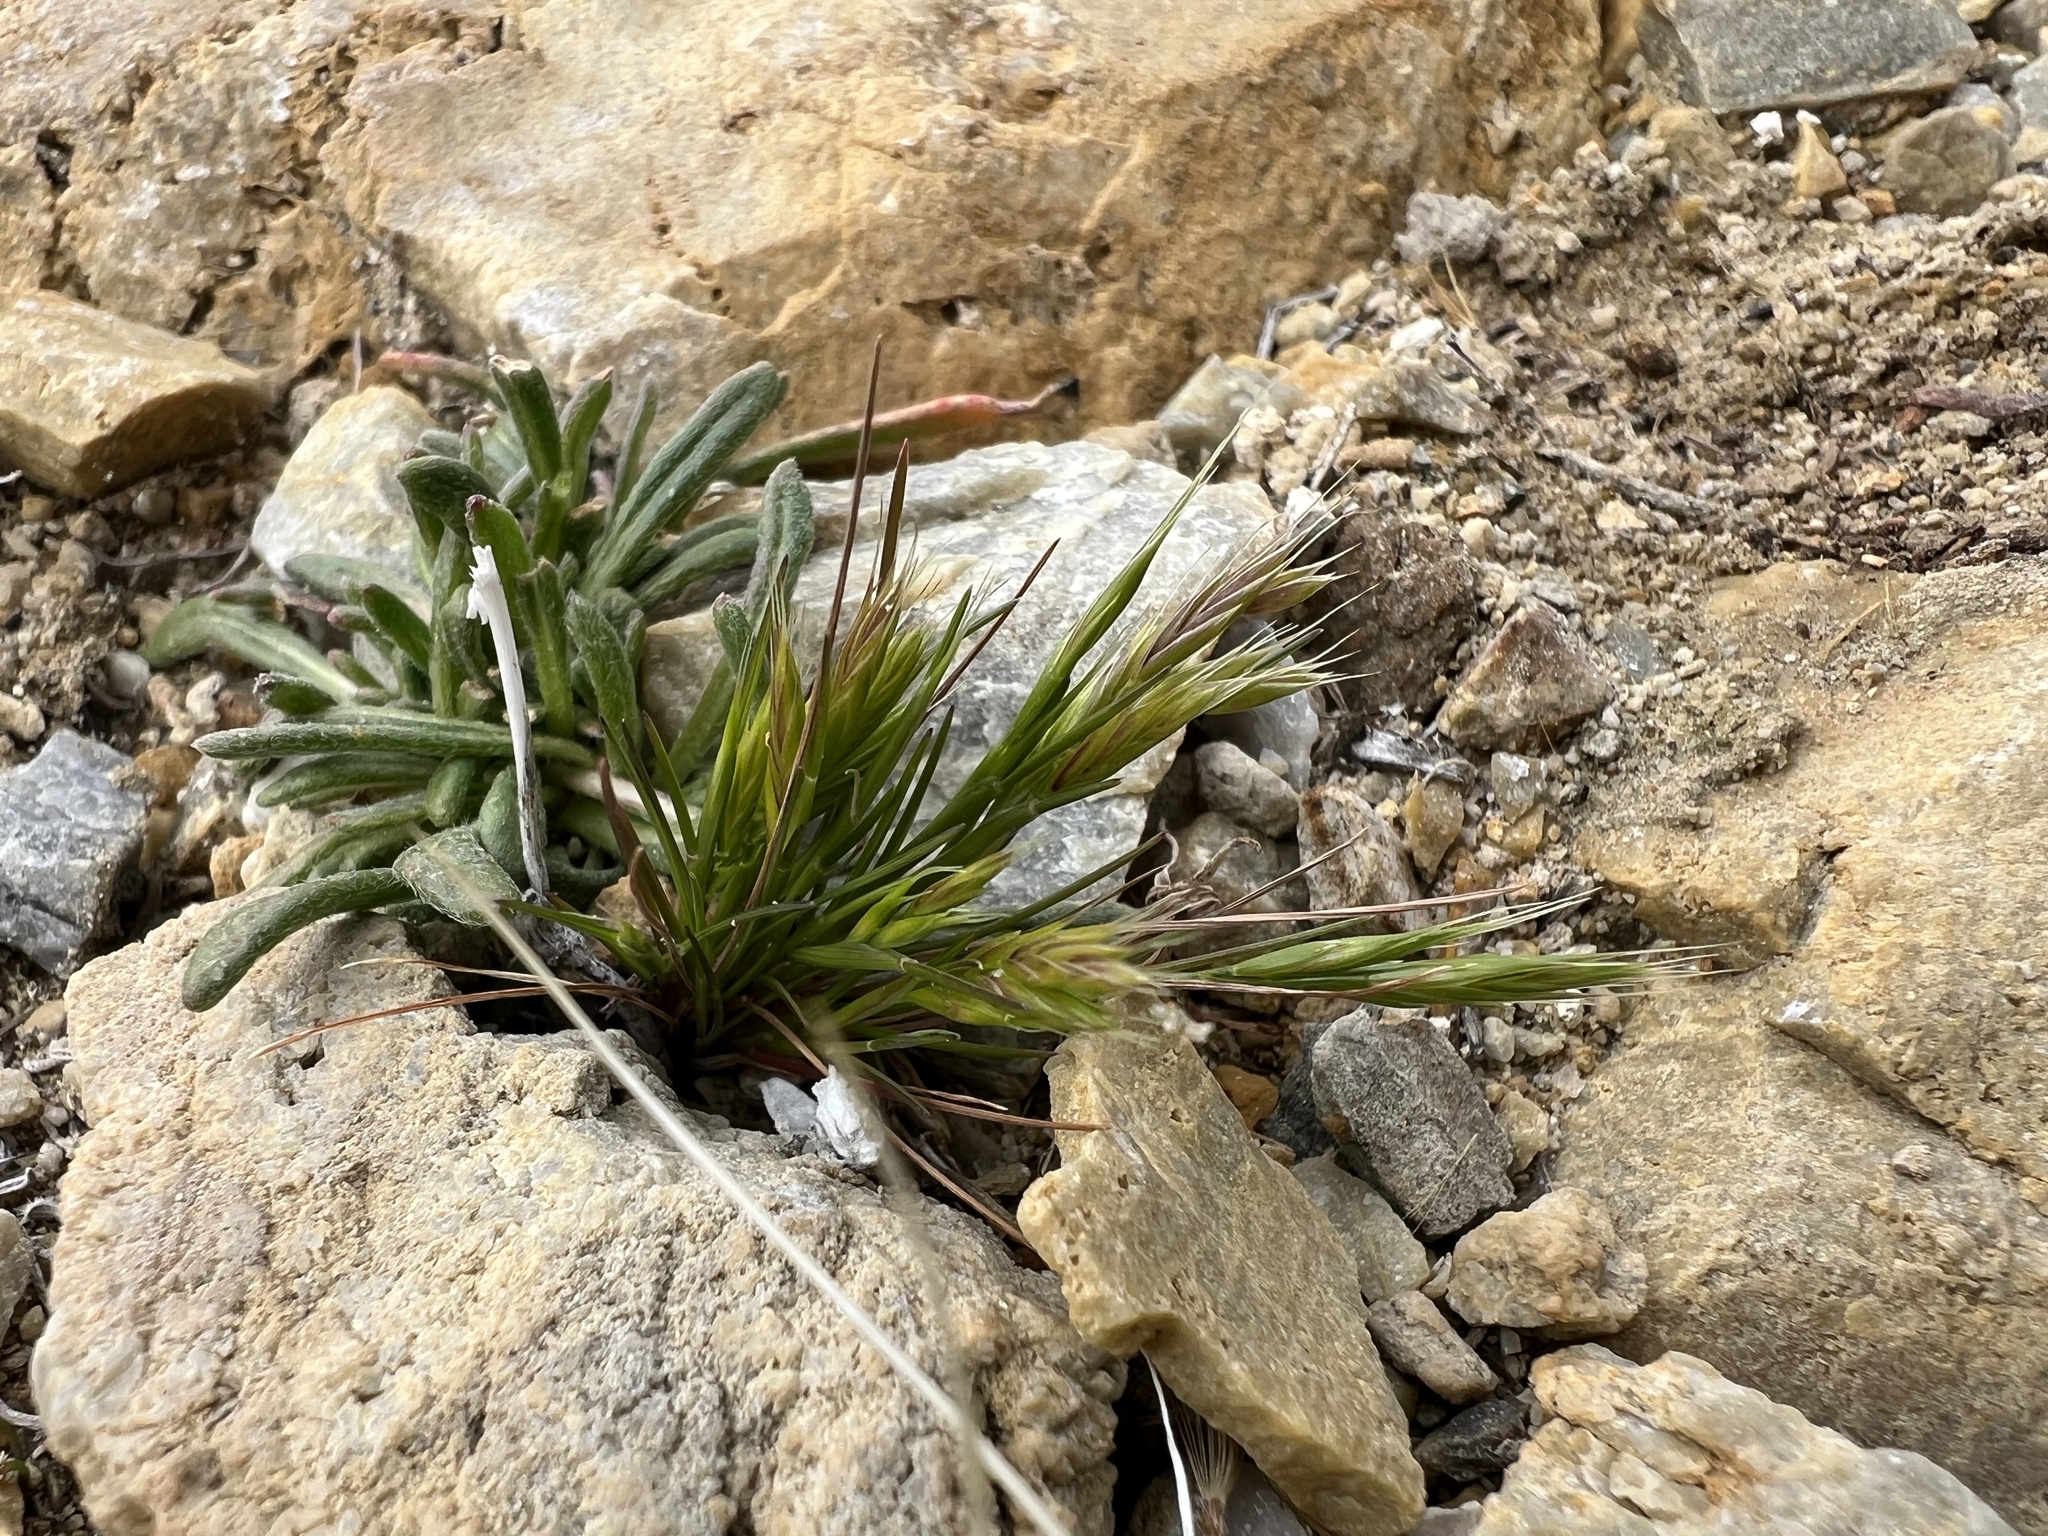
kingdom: Plantae
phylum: Tracheophyta
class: Liliopsida
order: Poales
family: Poaceae
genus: Festuca
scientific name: Festuca octoflora
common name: Sixweeks grass
